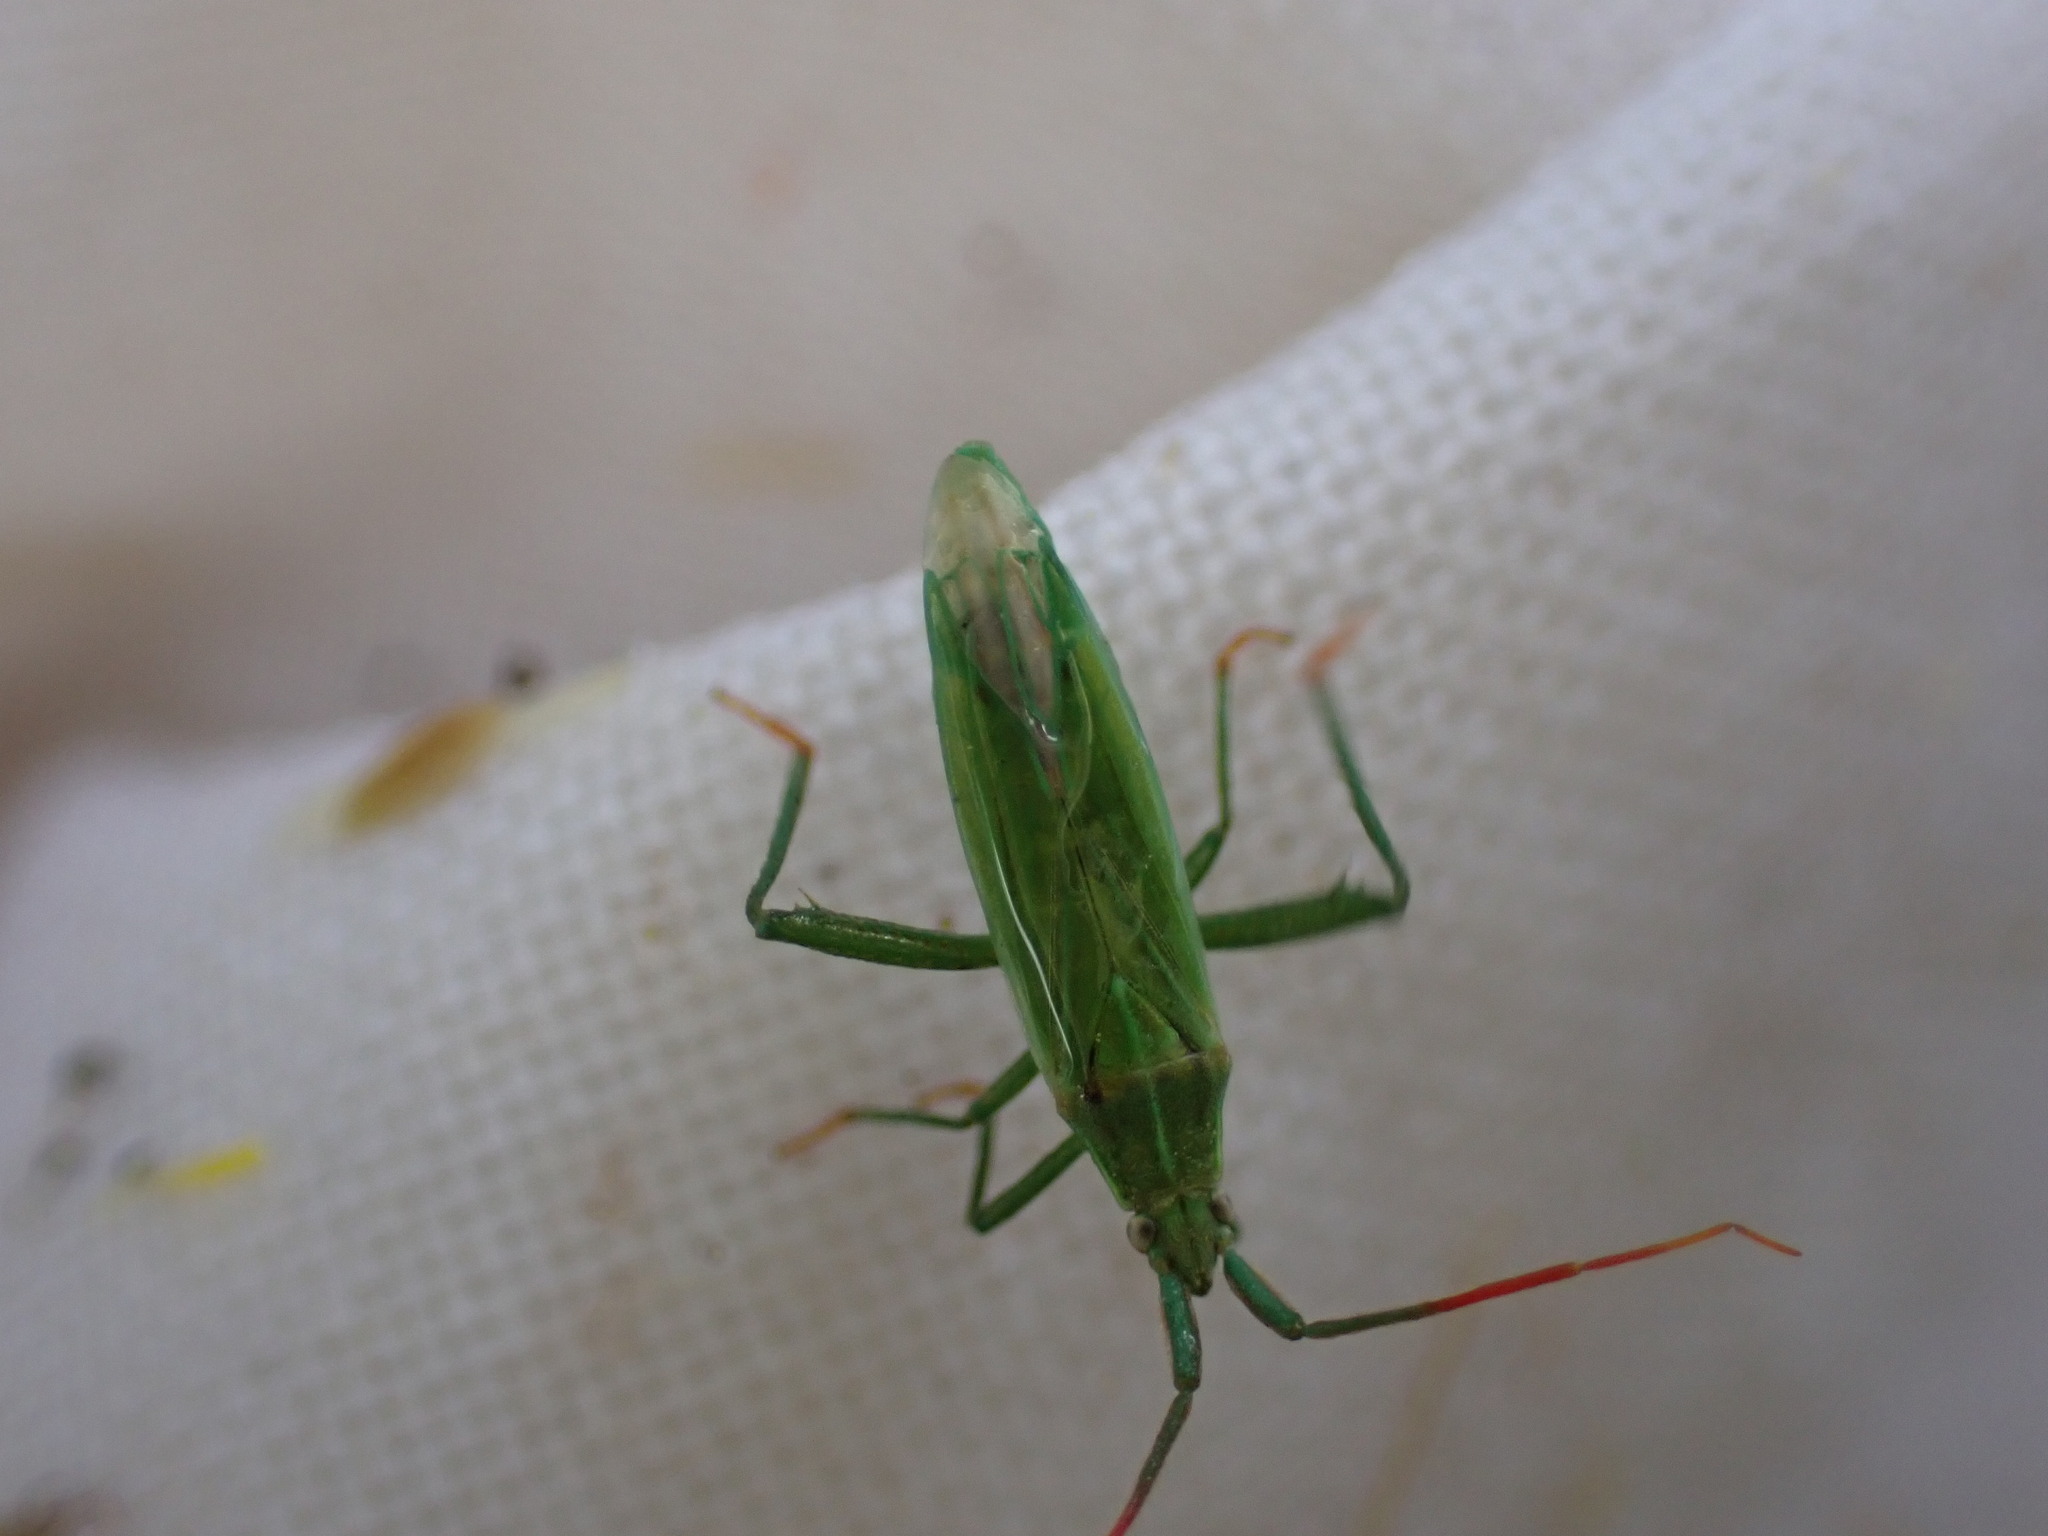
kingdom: Animalia
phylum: Arthropoda
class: Insecta
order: Hemiptera
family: Miridae
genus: Stenodema
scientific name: Stenodema calcarata
